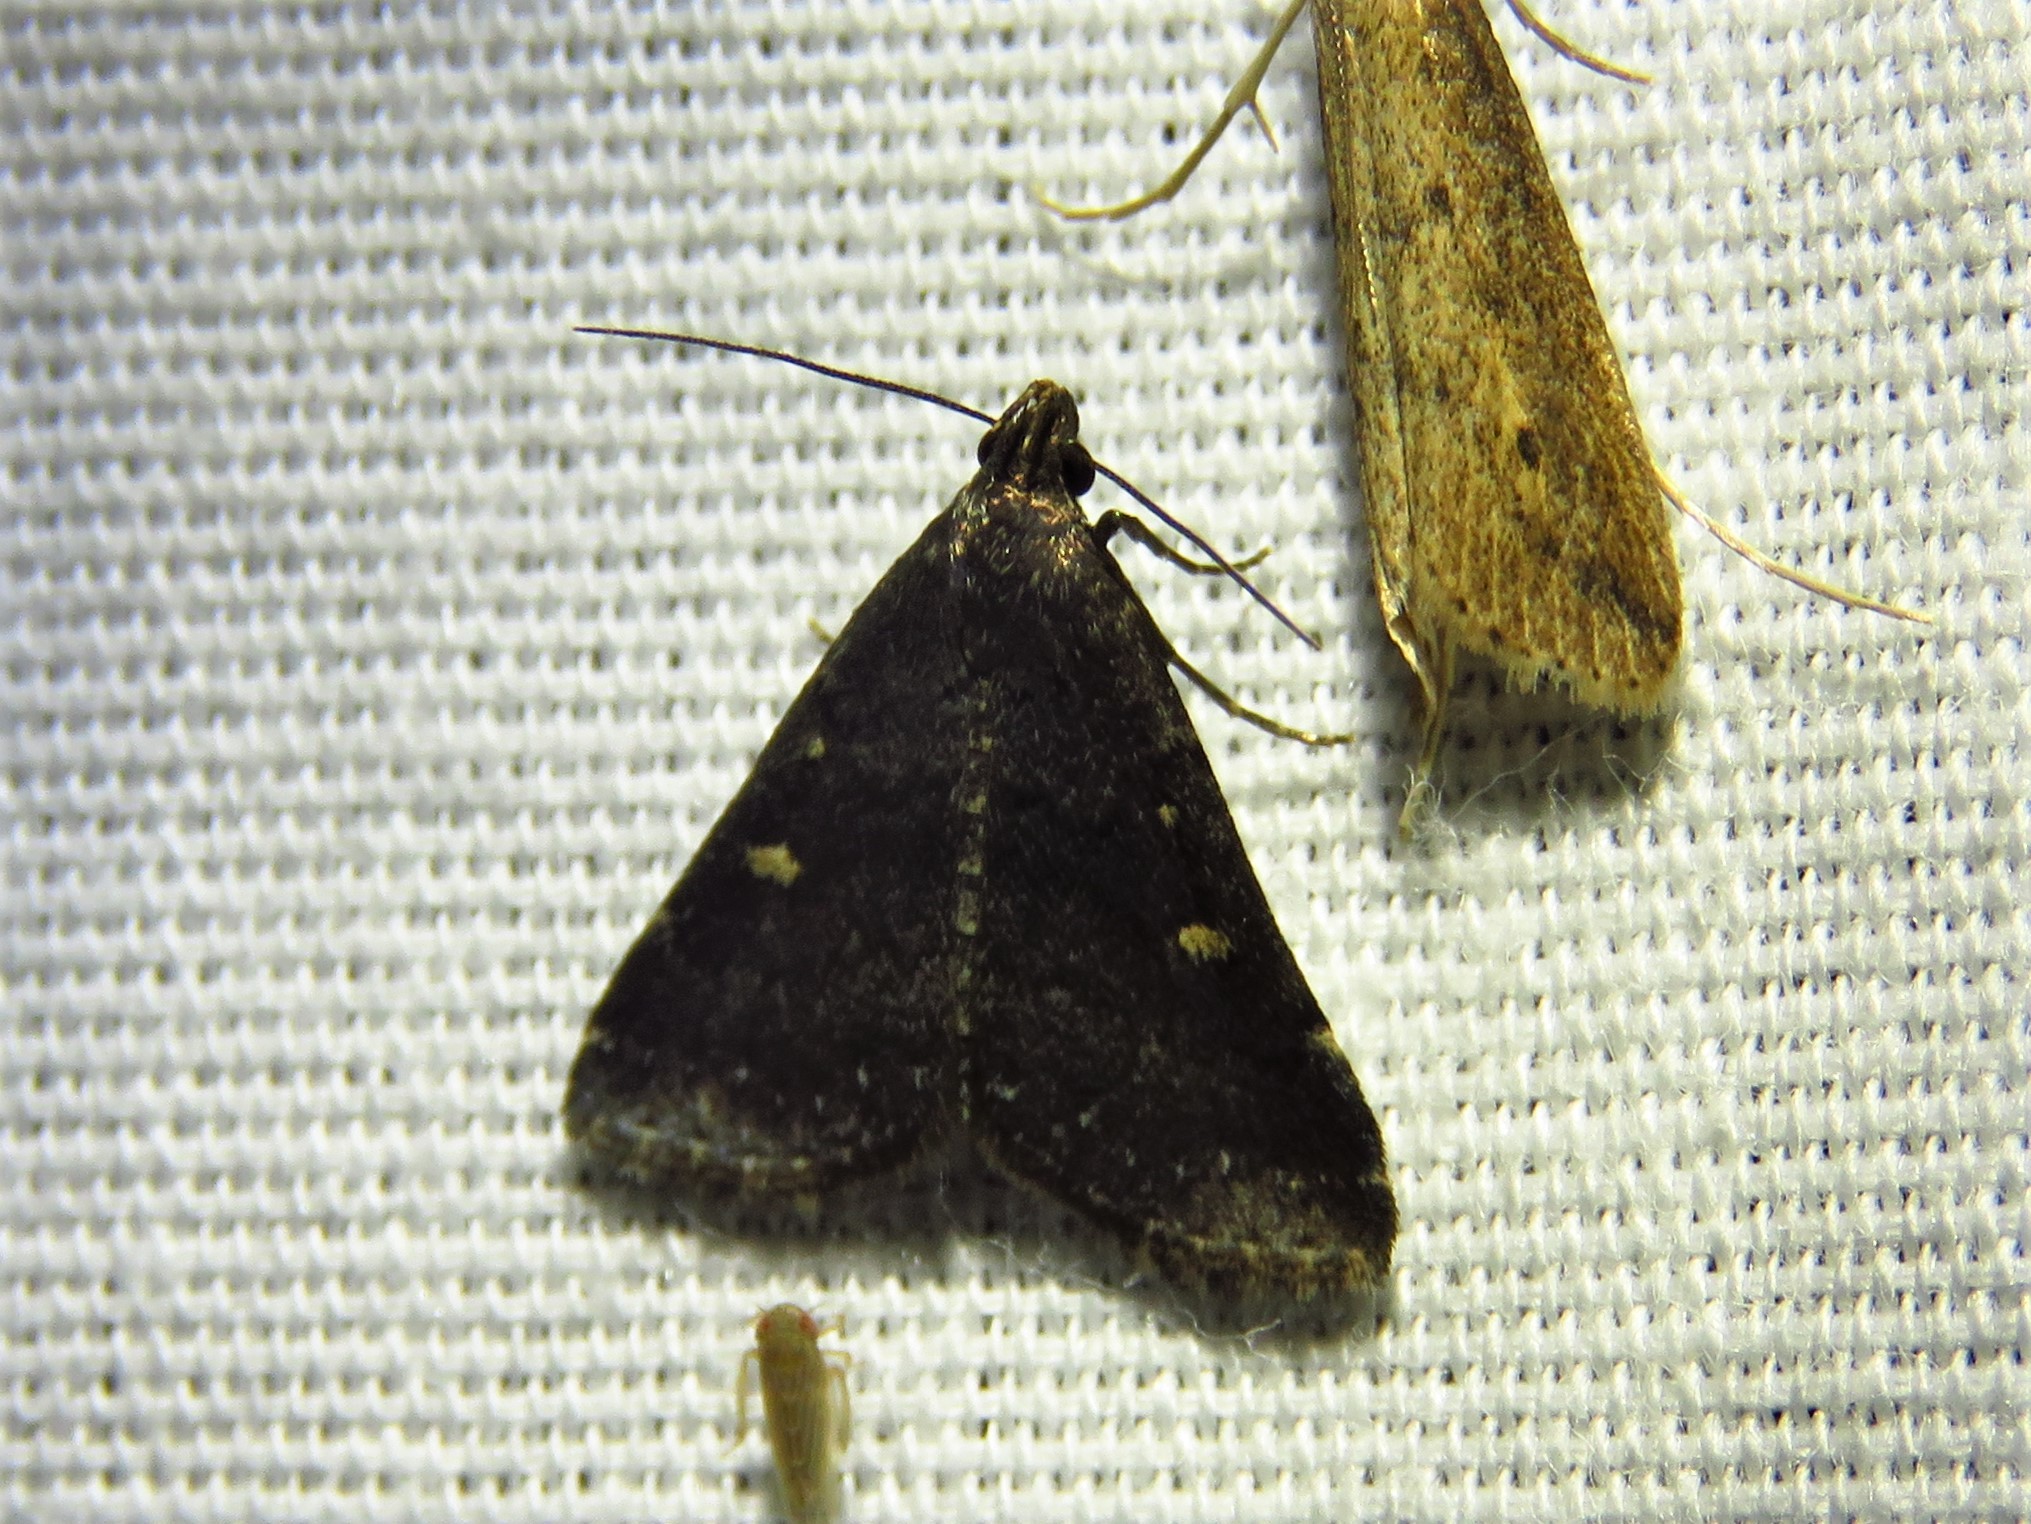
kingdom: Animalia
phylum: Arthropoda
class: Insecta
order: Lepidoptera
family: Erebidae
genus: Tetanolita
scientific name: Tetanolita mynesalis
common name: Smoky tetanolita moth
